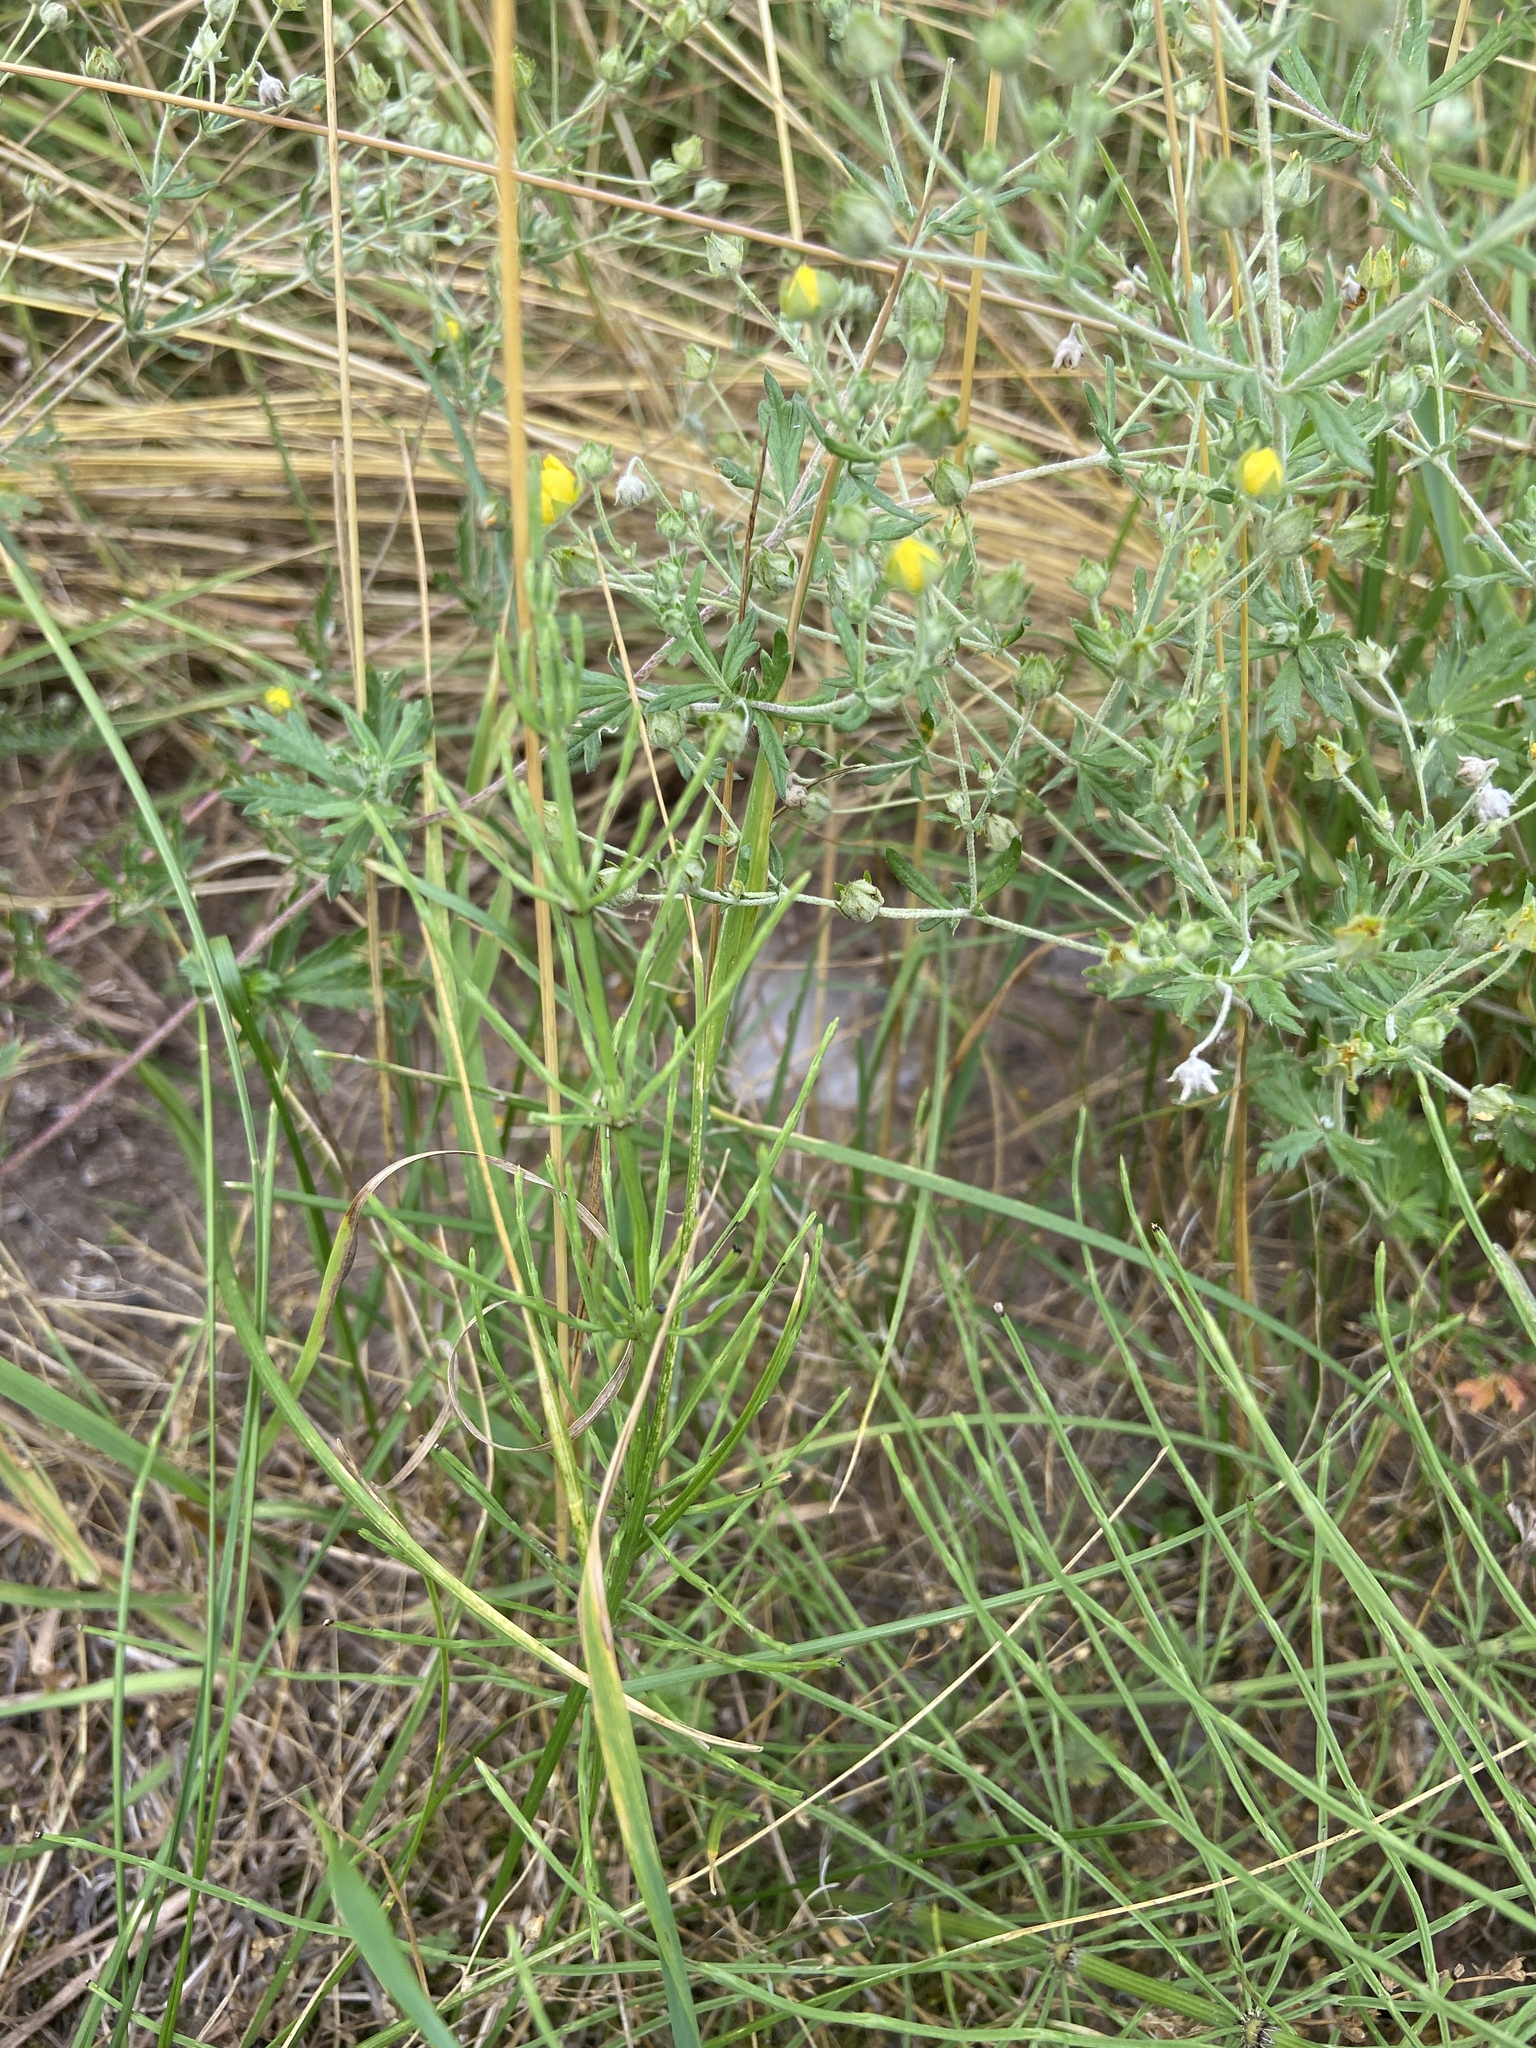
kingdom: Plantae
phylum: Tracheophyta
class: Magnoliopsida
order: Rosales
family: Rosaceae
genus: Potentilla
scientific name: Potentilla argentea
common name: Hoary cinquefoil
